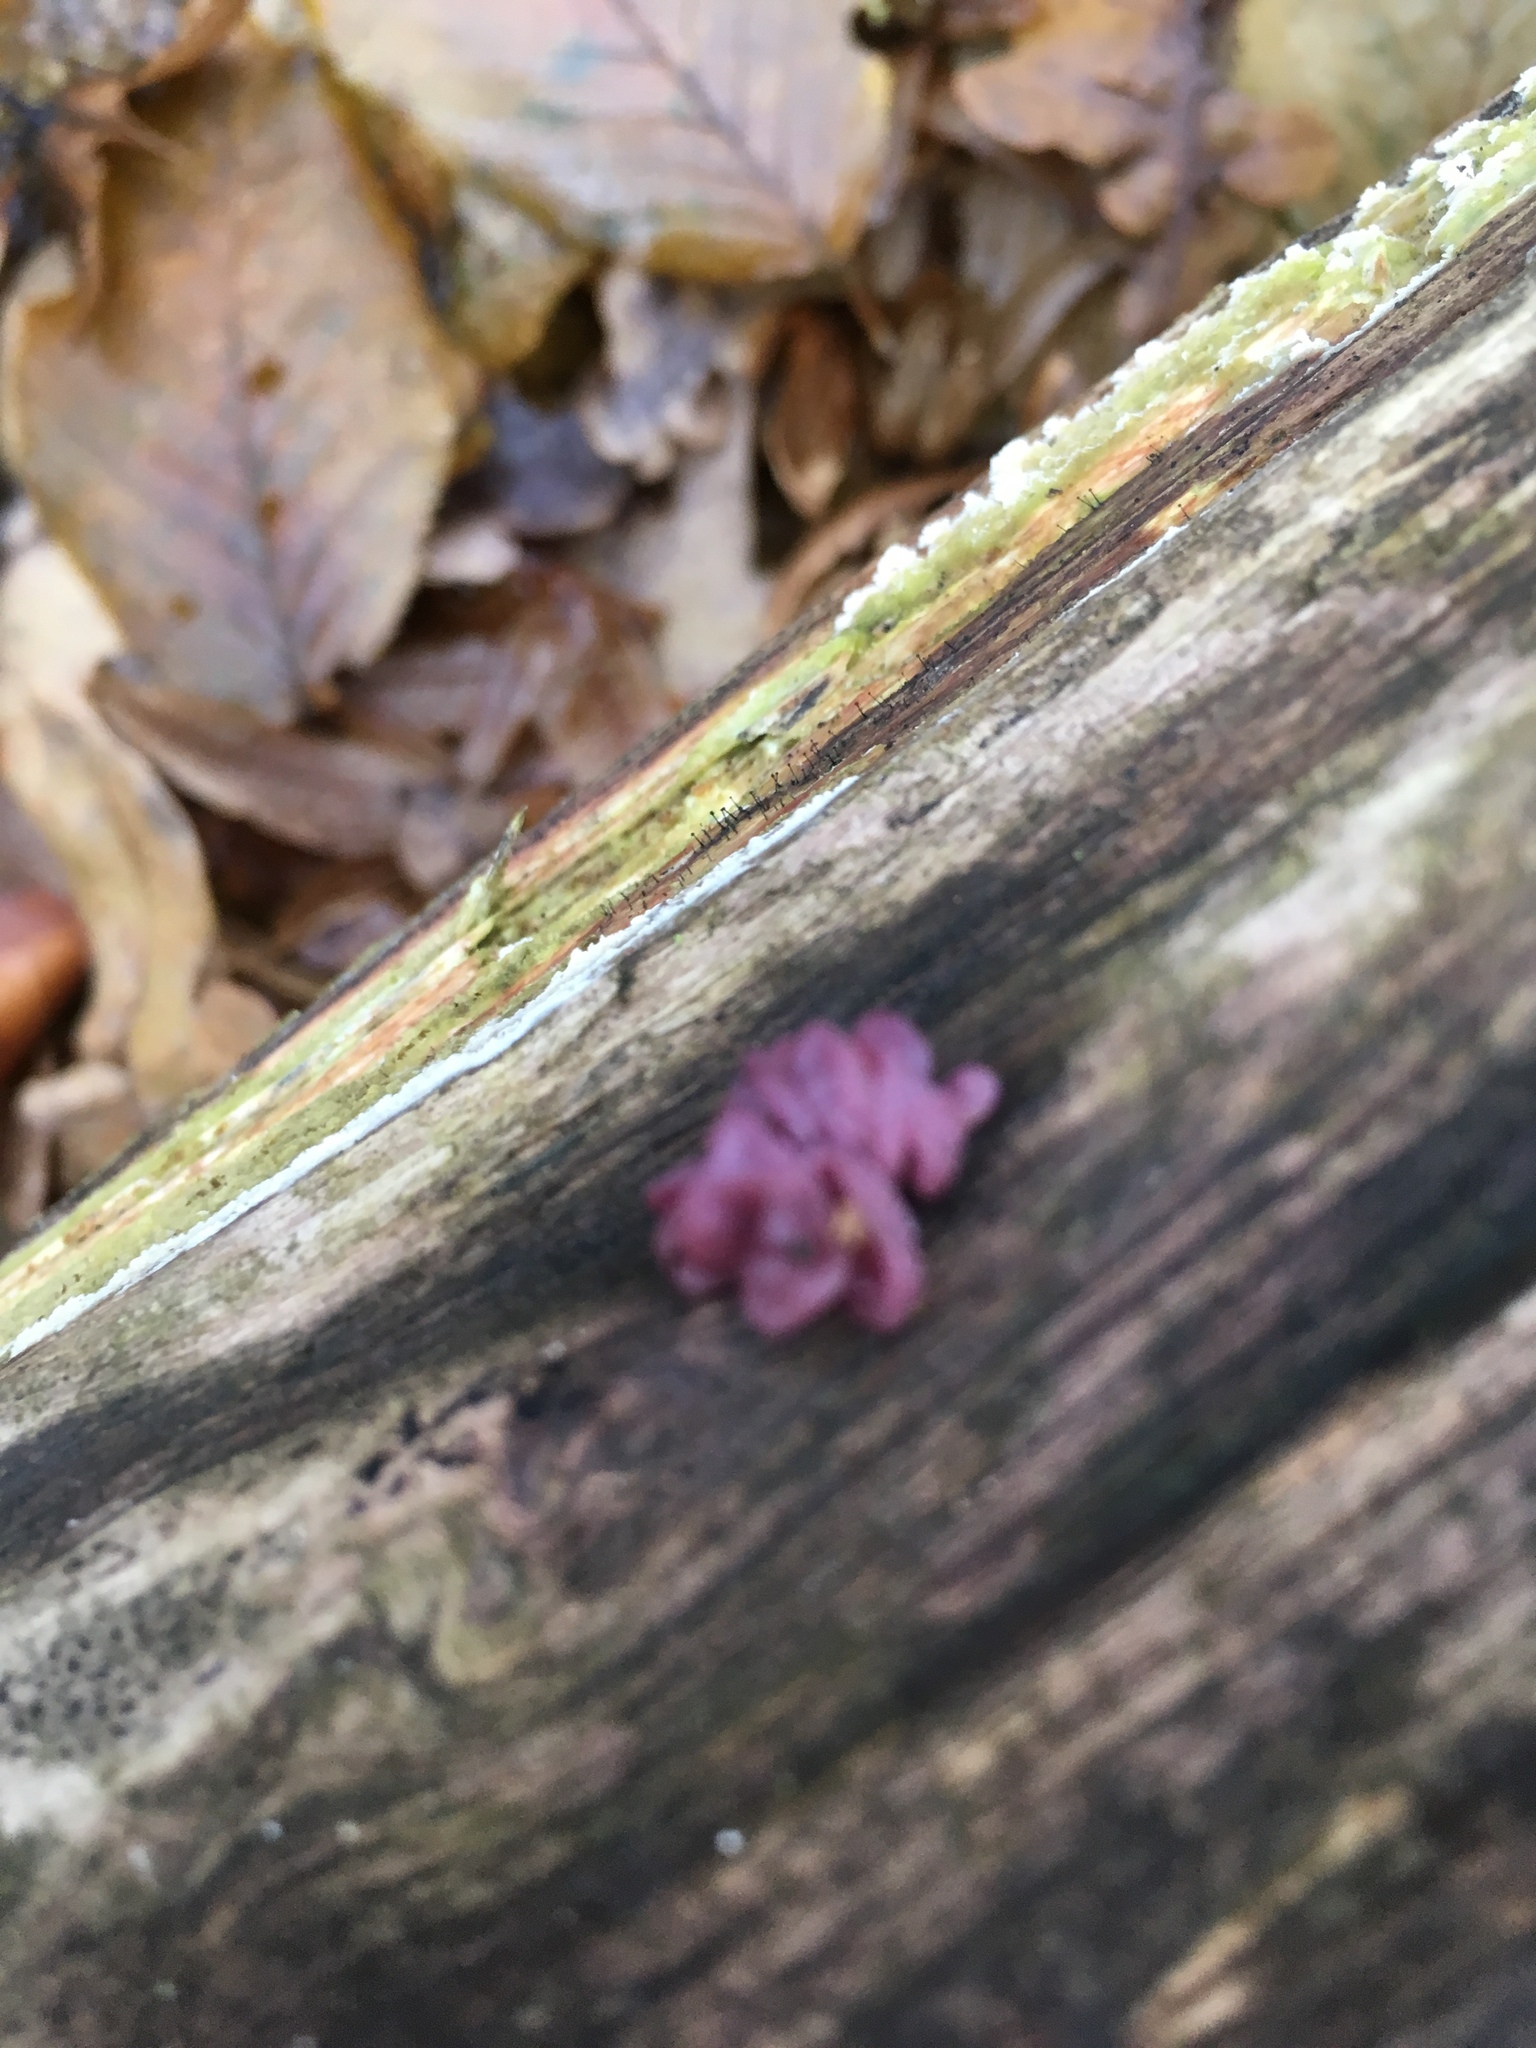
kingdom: Fungi
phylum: Ascomycota
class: Leotiomycetes
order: Helotiales
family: Gelatinodiscaceae
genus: Ascocoryne
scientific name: Ascocoryne sarcoides
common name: Purple jellydisc
